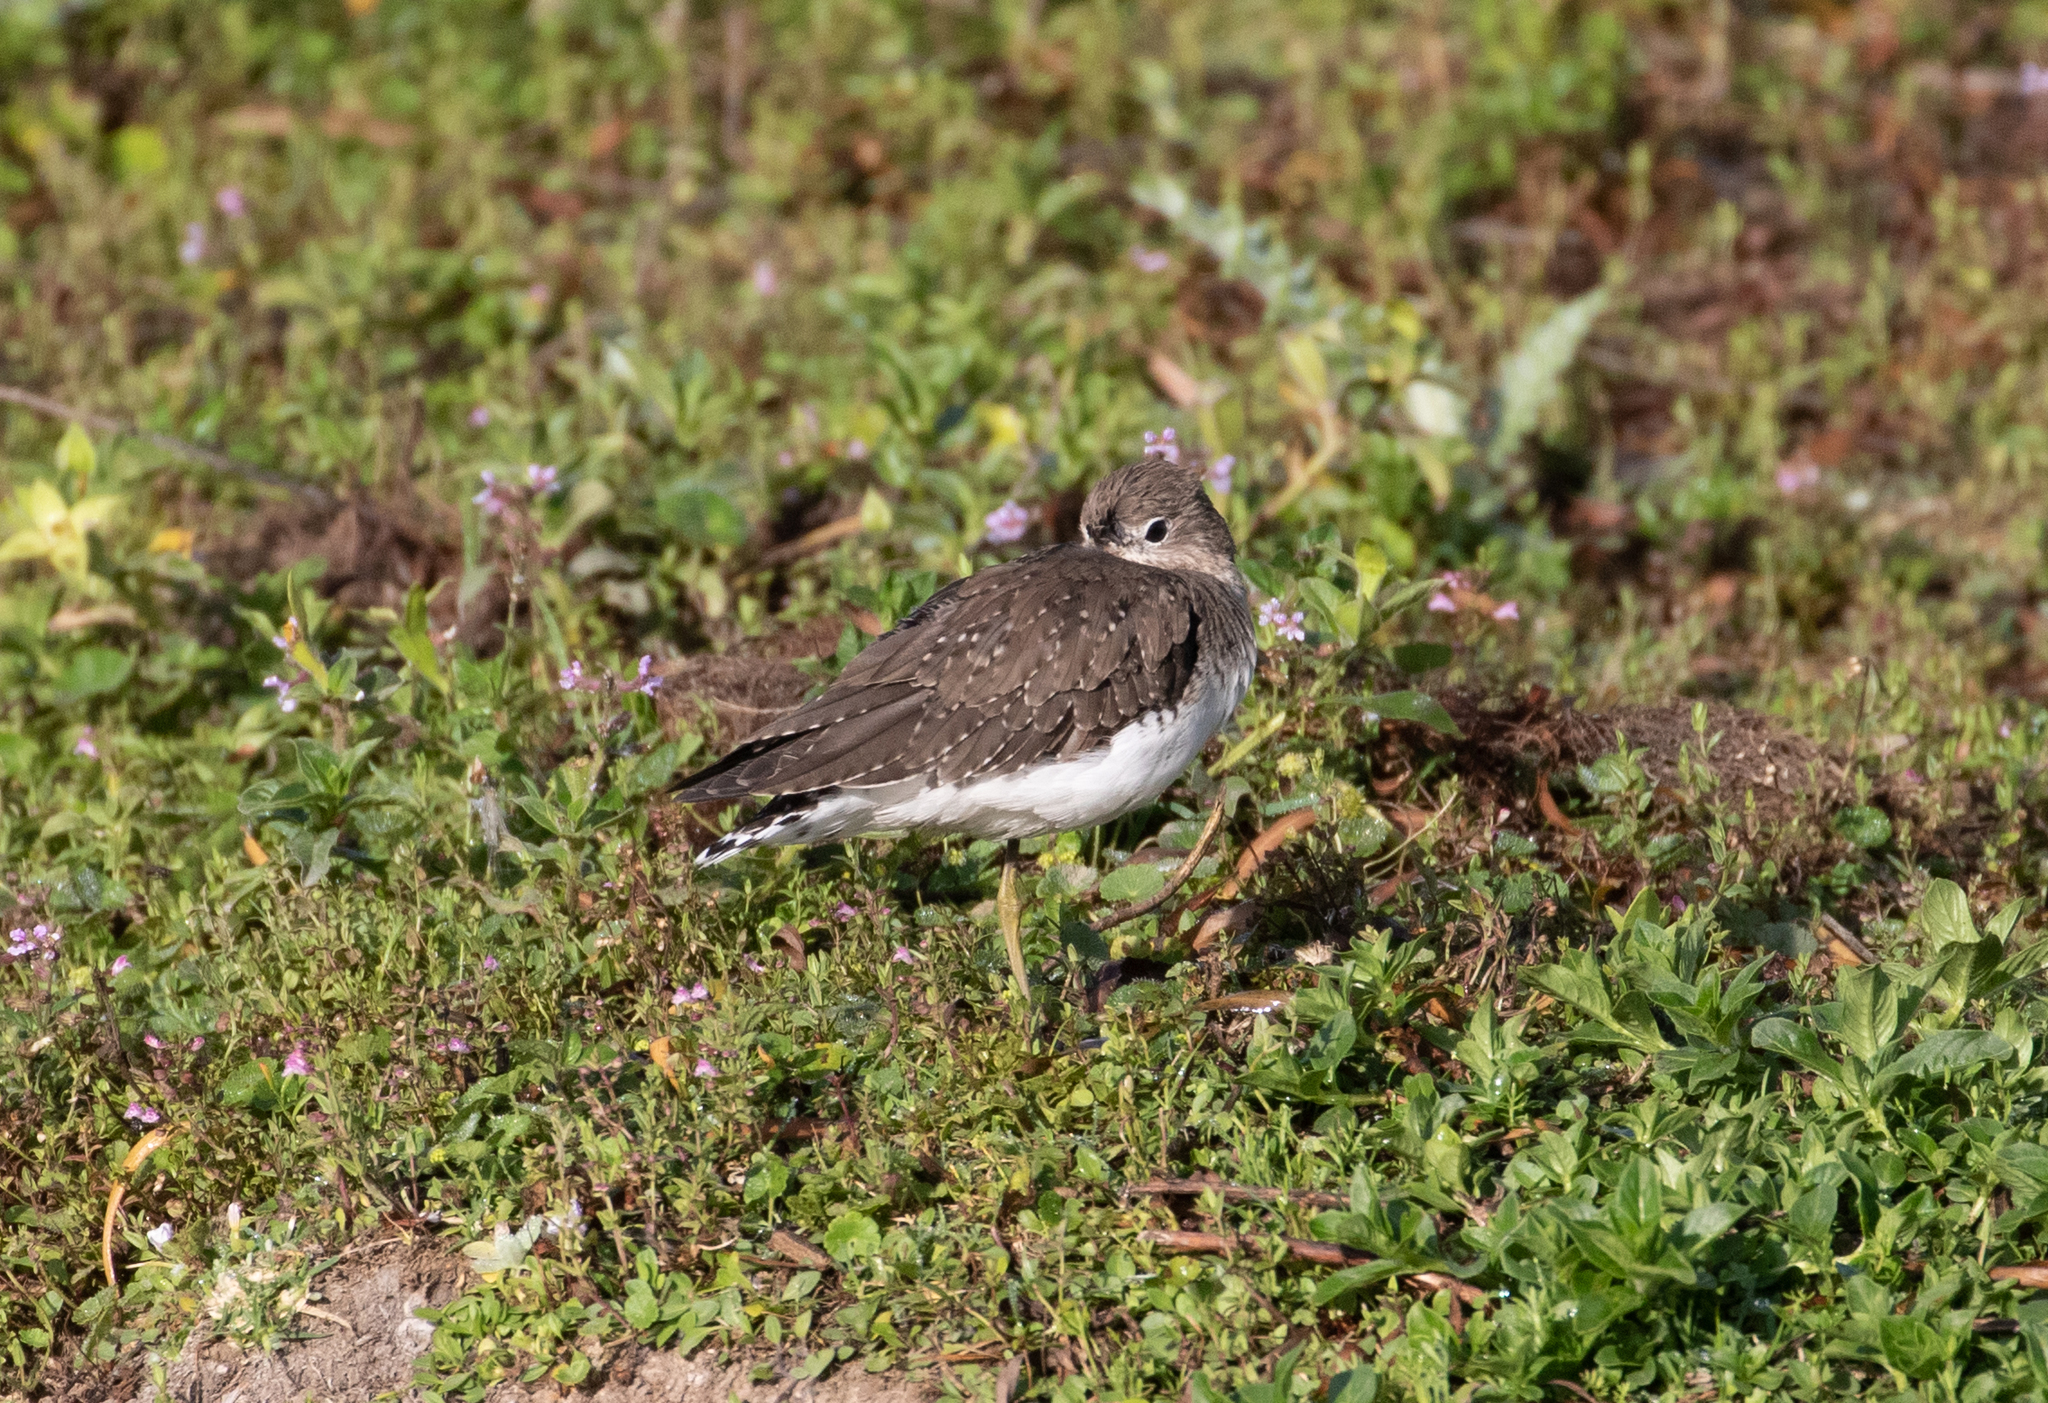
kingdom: Animalia
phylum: Chordata
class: Aves
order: Charadriiformes
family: Scolopacidae
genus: Tringa
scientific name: Tringa solitaria
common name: Solitary sandpiper
